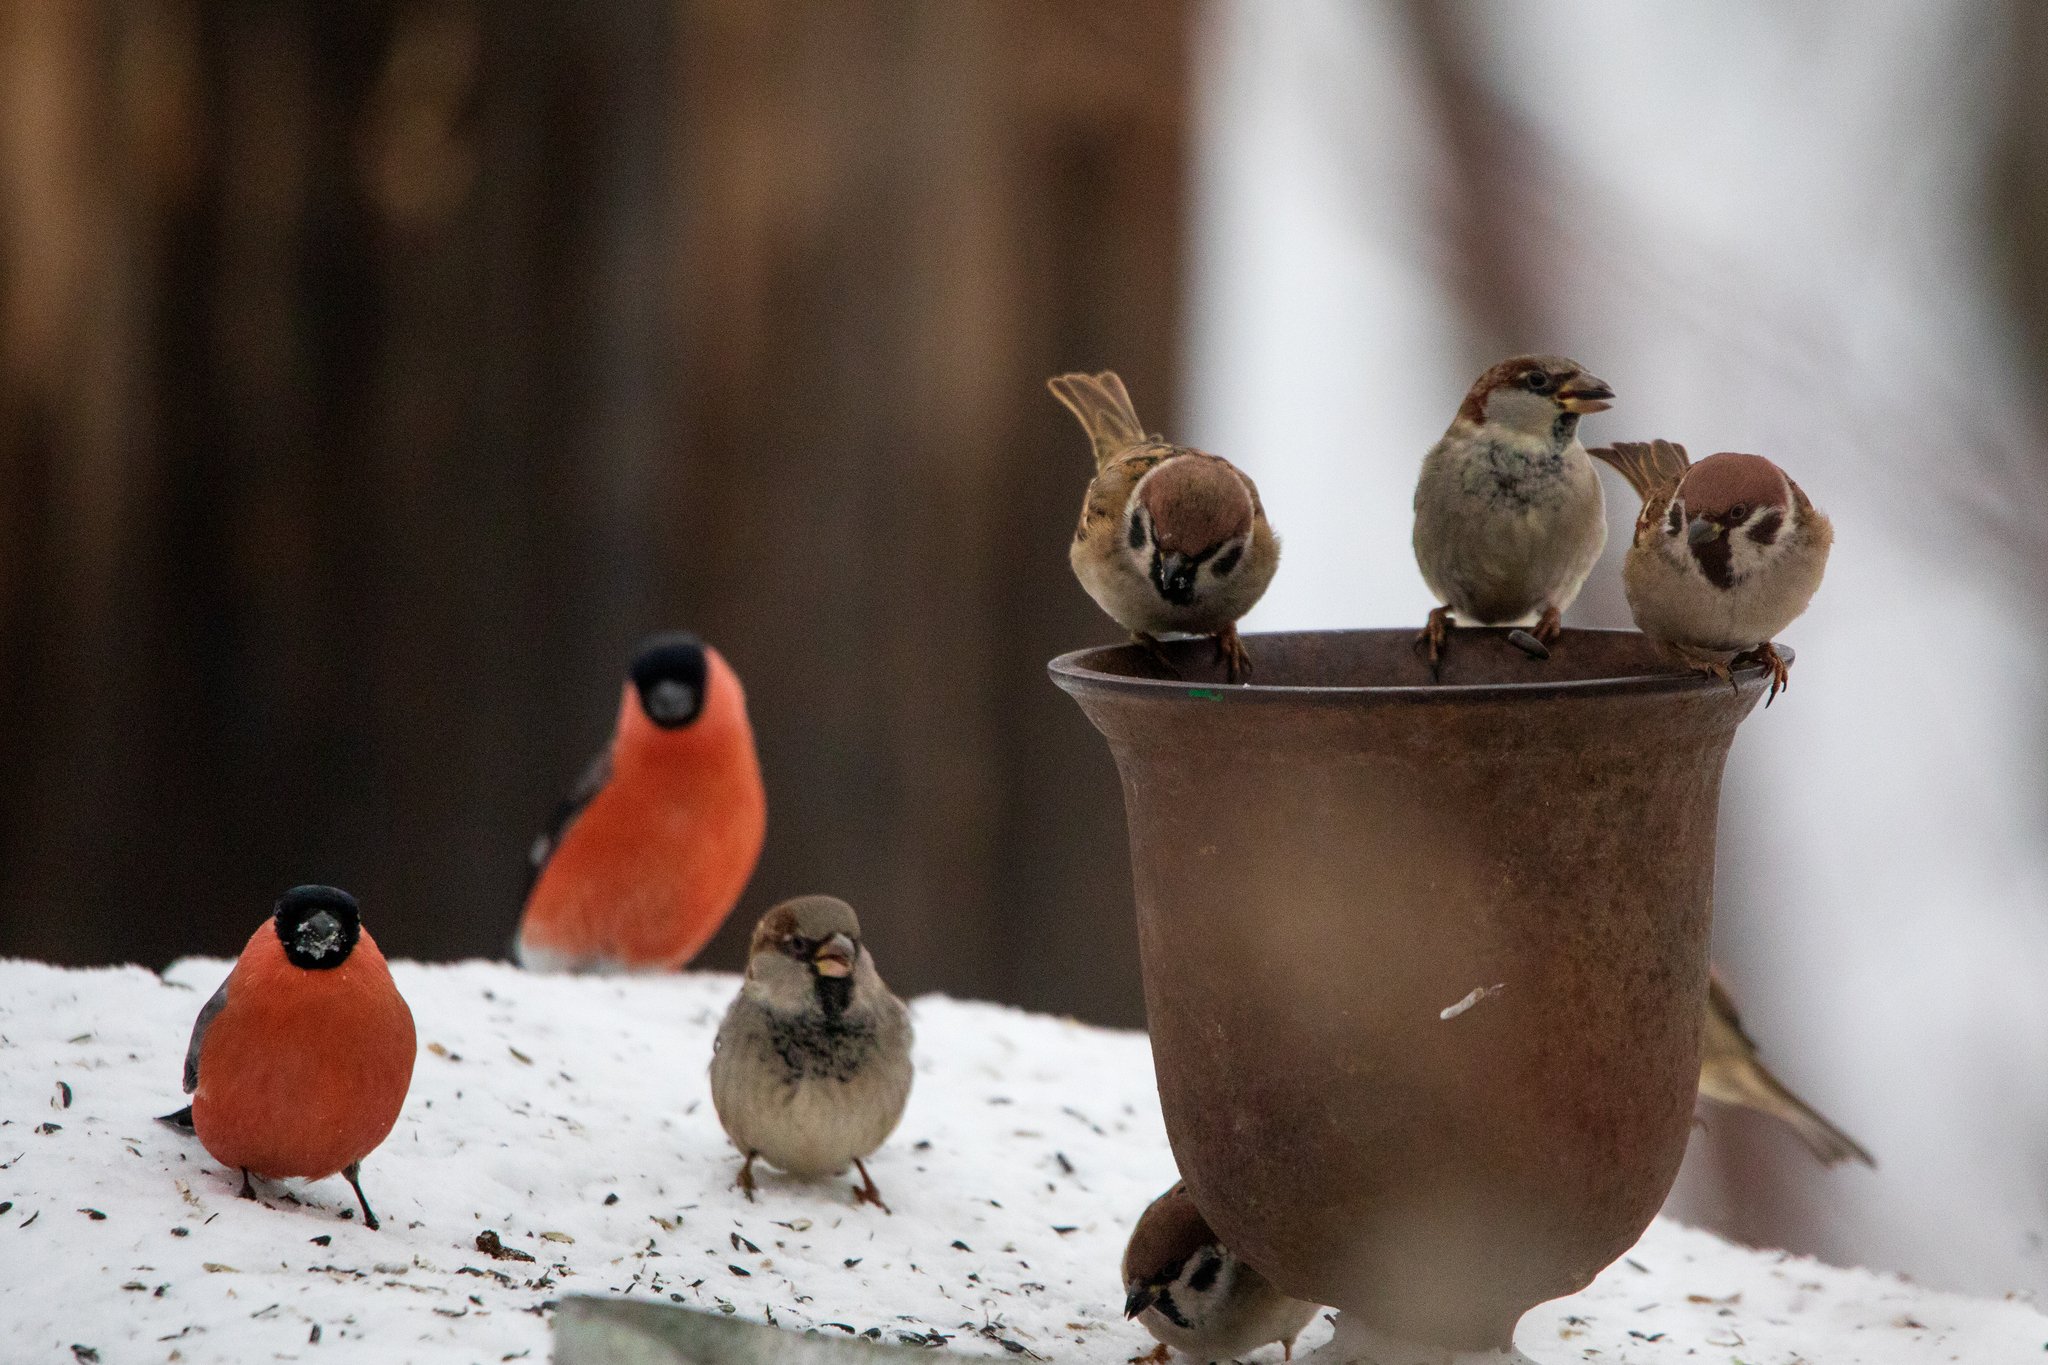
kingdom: Animalia
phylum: Chordata
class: Aves
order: Passeriformes
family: Fringillidae
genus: Pyrrhula
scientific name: Pyrrhula pyrrhula
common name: Eurasian bullfinch
